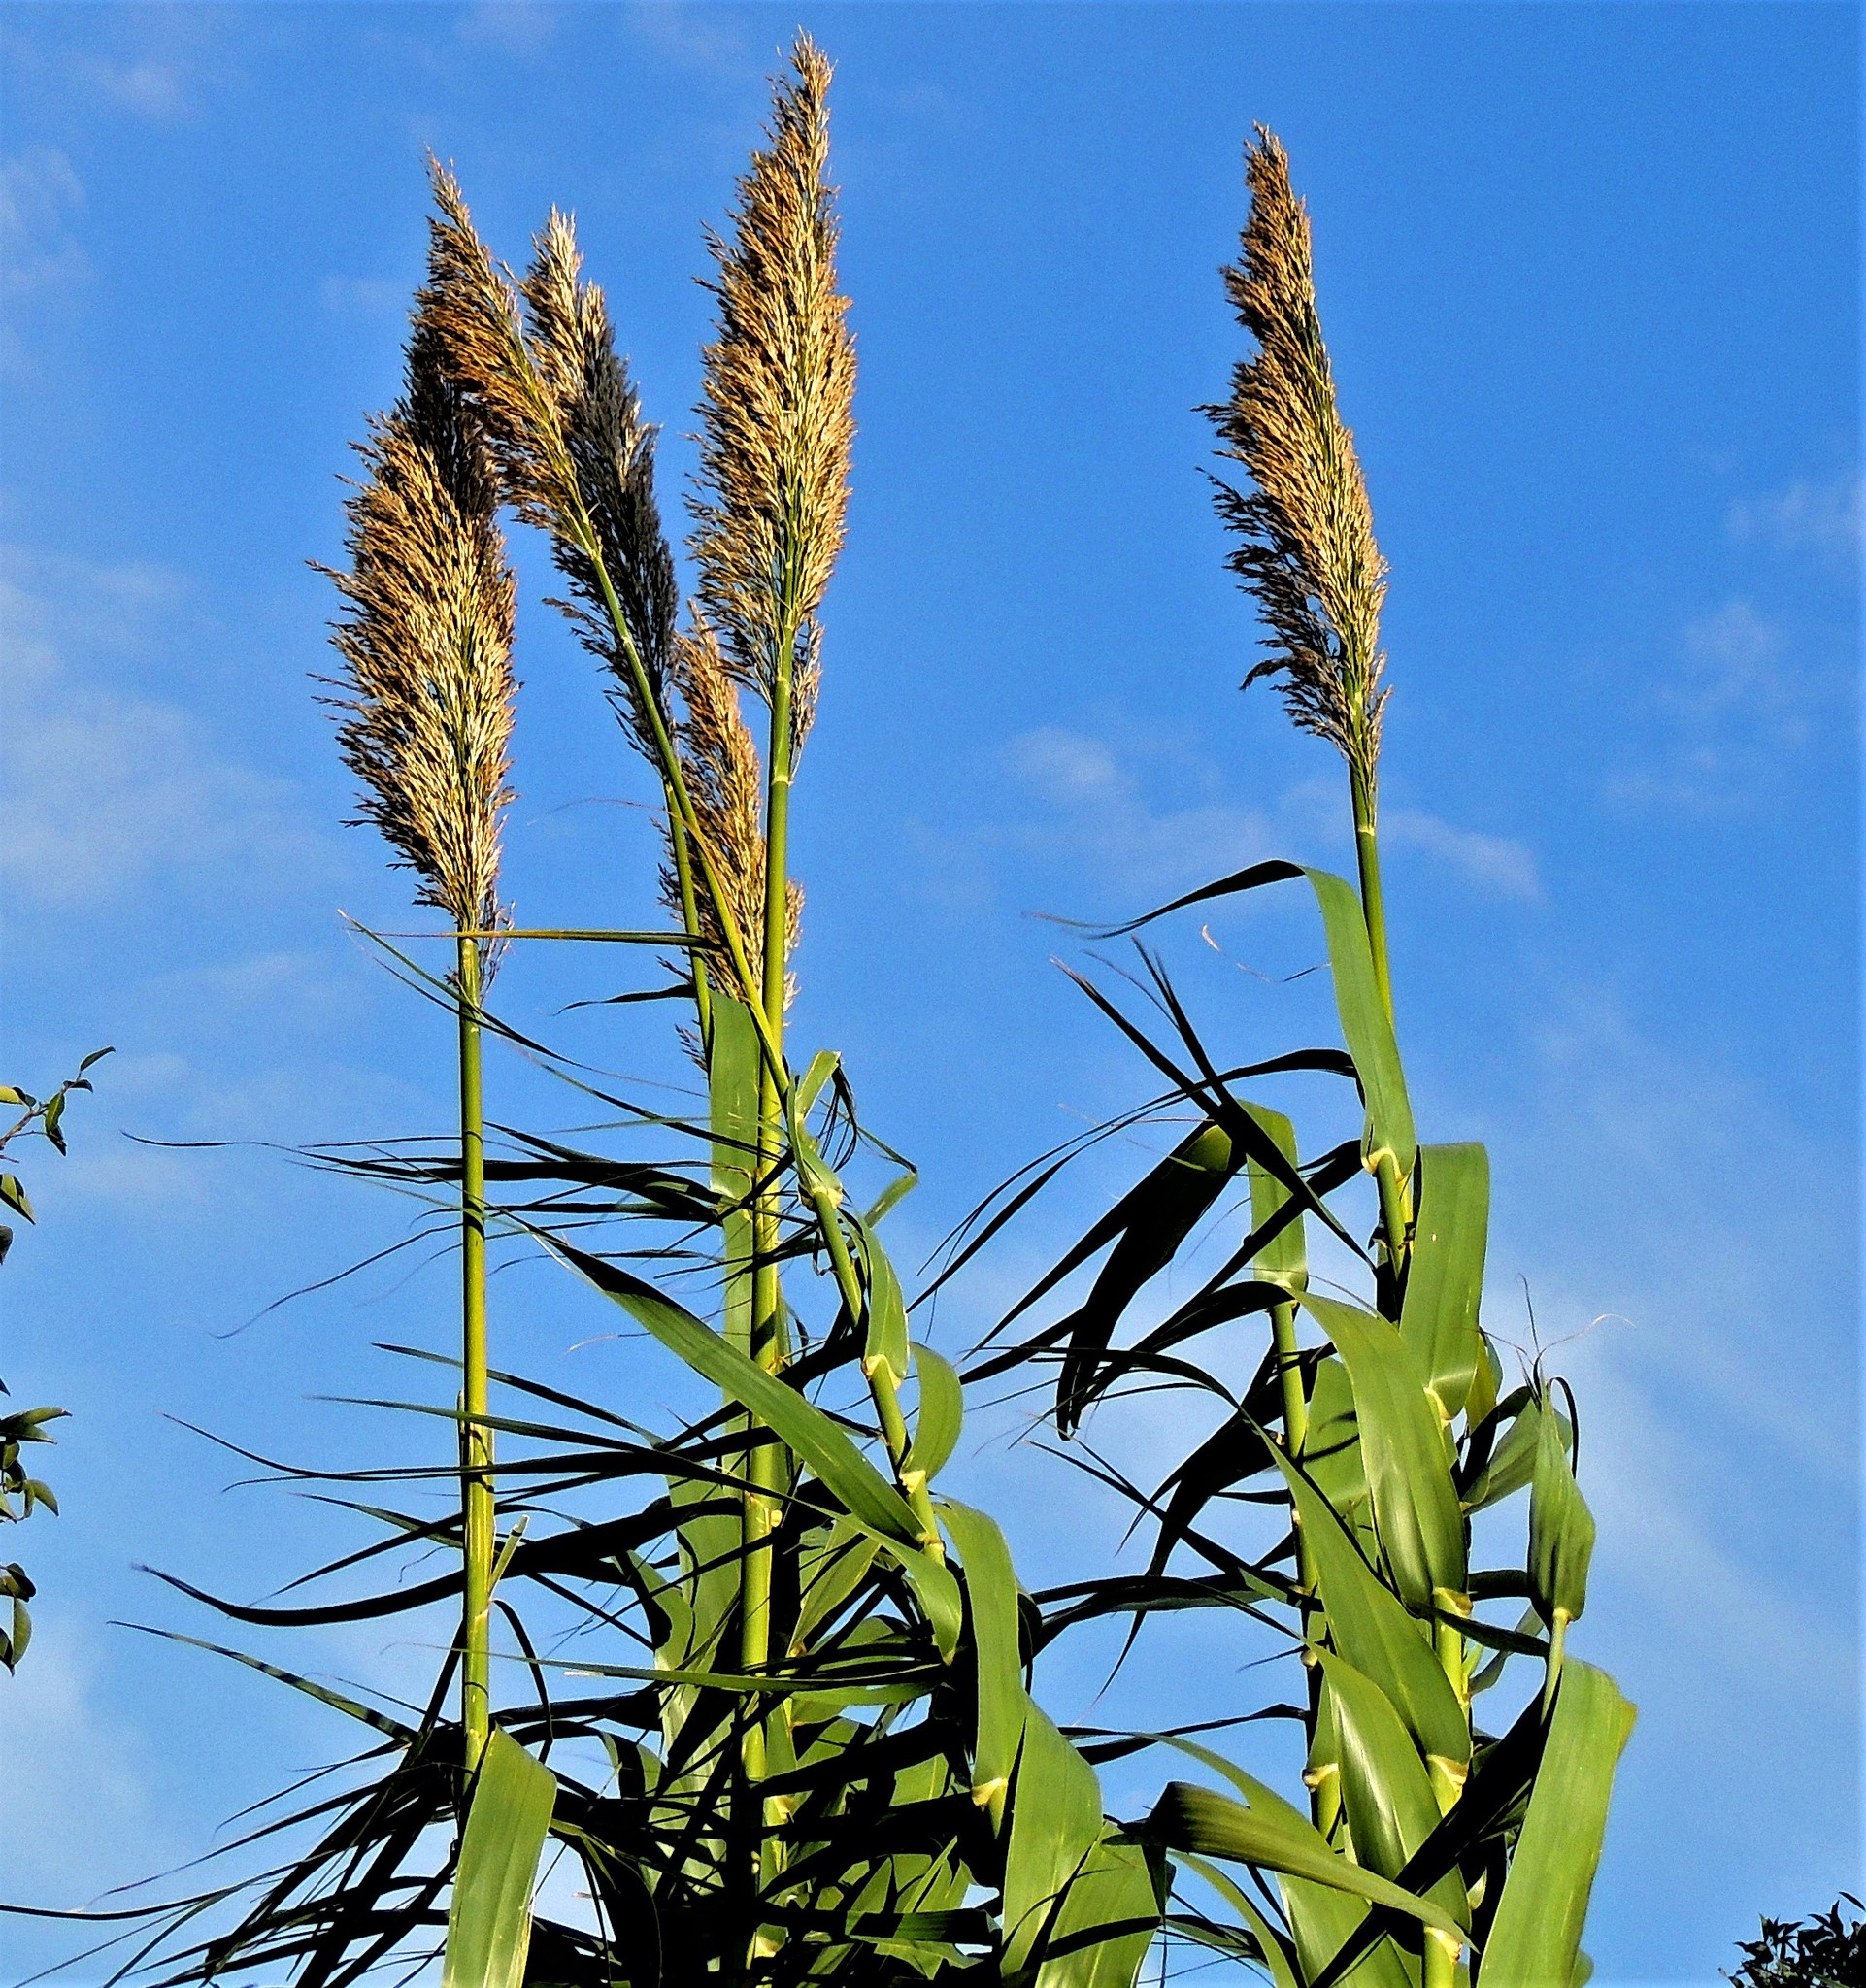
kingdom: Plantae
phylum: Tracheophyta
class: Liliopsida
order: Poales
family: Poaceae
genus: Arundo
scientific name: Arundo donax
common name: Giant reed
